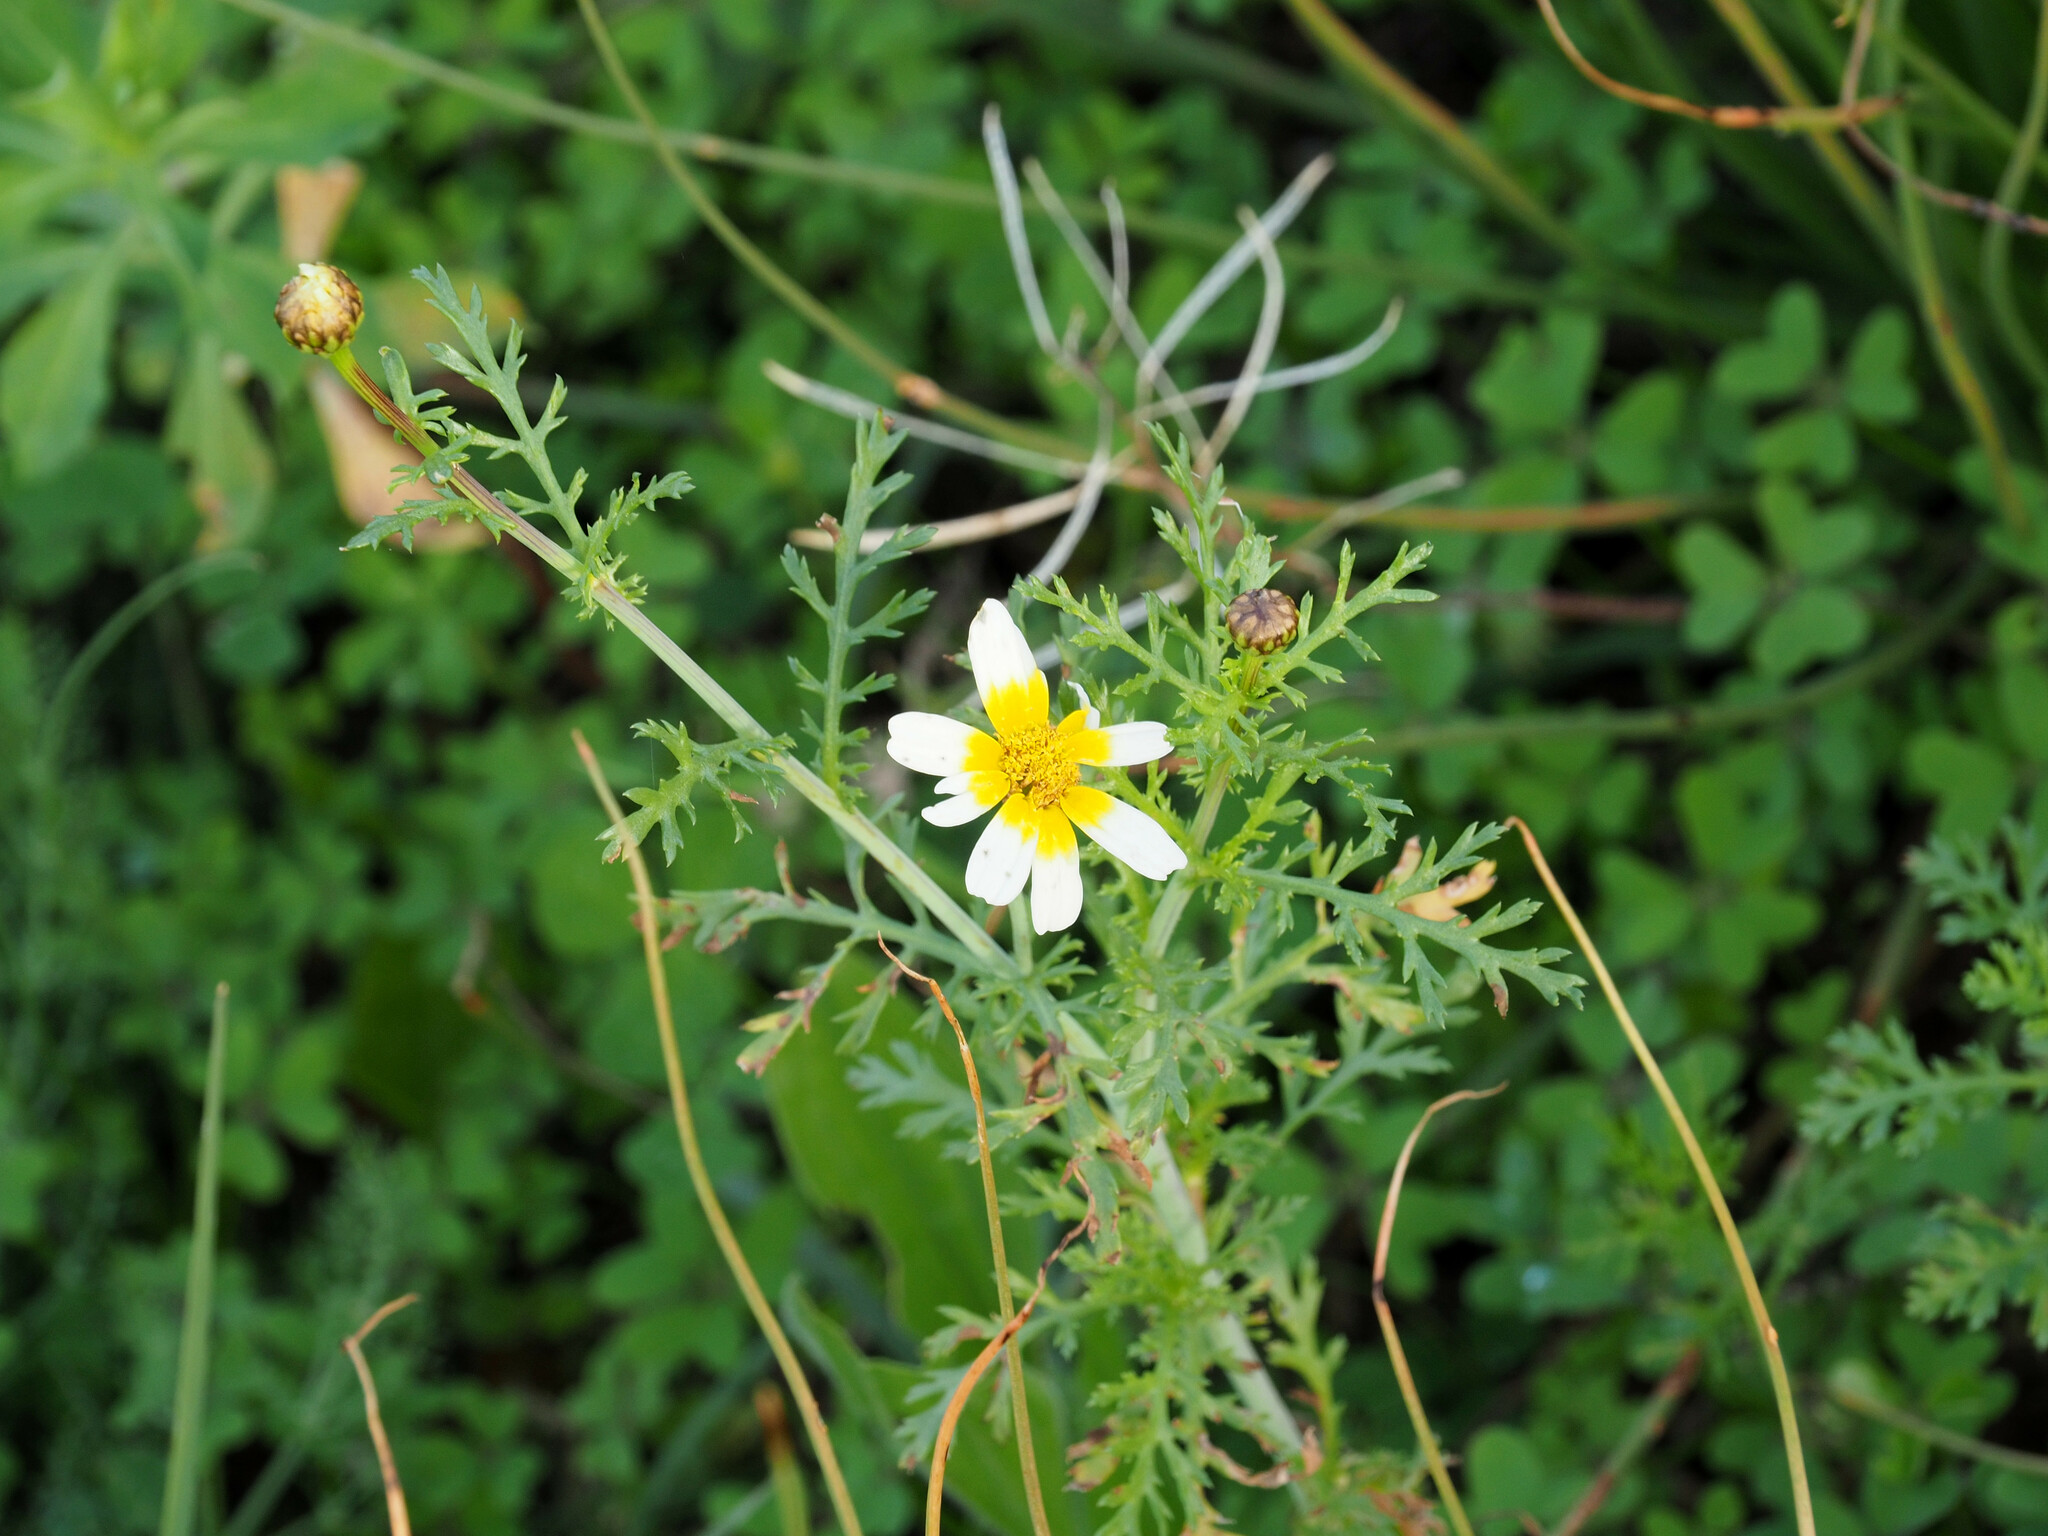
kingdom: Plantae
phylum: Tracheophyta
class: Magnoliopsida
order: Asterales
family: Asteraceae
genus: Glebionis
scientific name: Glebionis coronaria
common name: Crowndaisy
